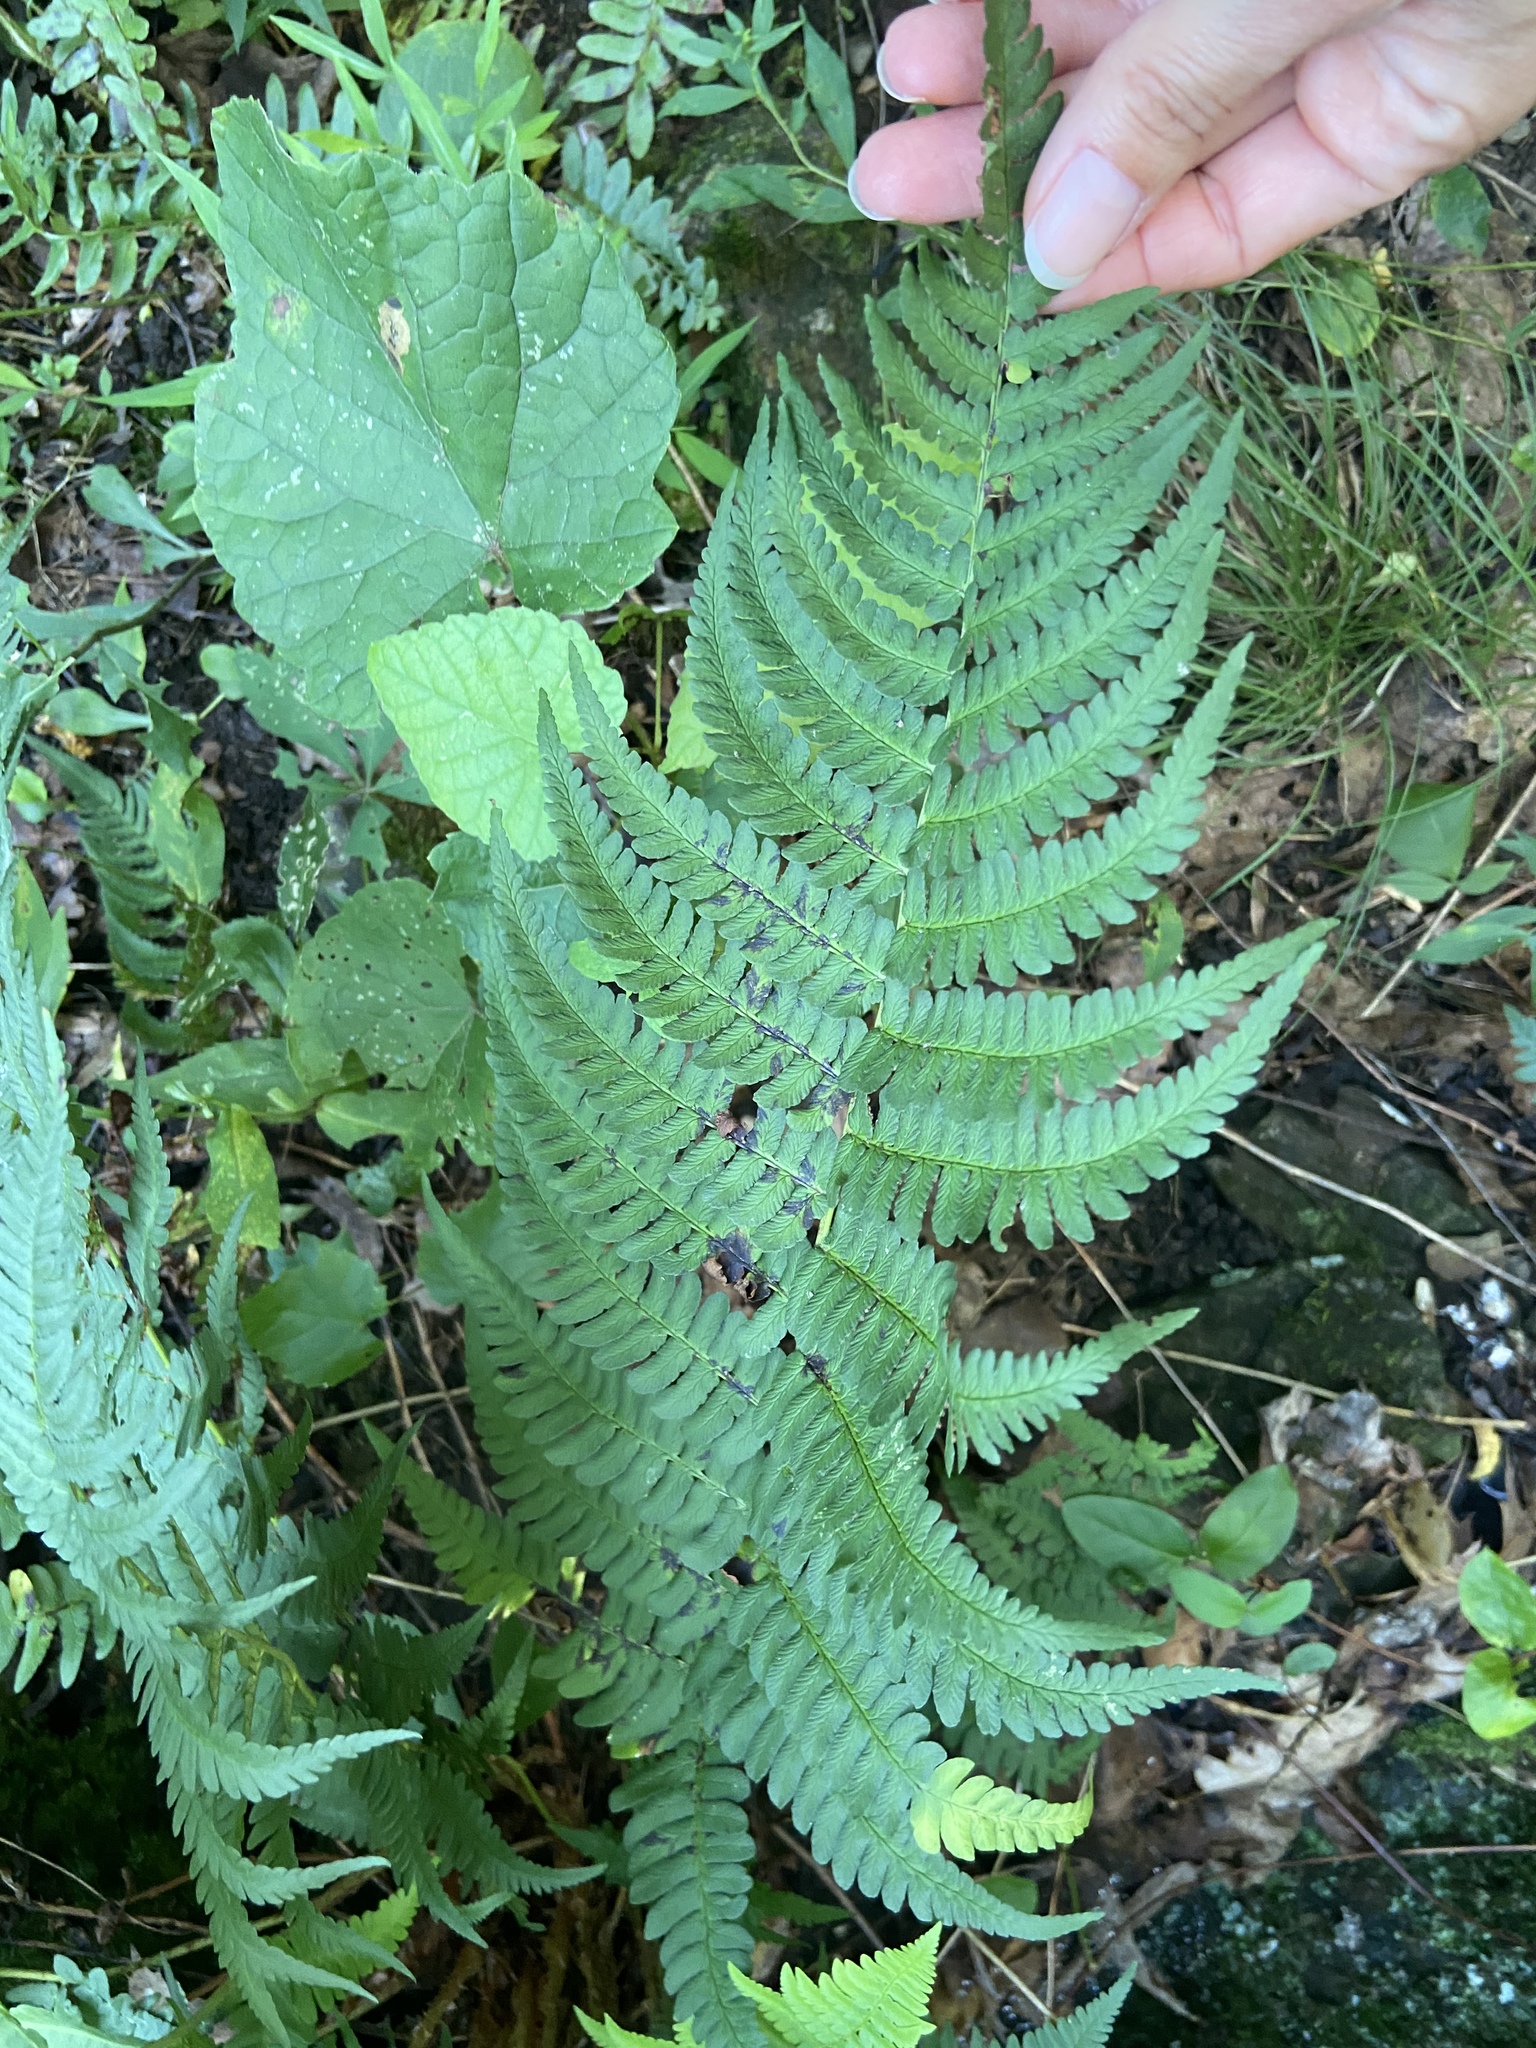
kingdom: Plantae
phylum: Tracheophyta
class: Polypodiopsida
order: Polypodiales
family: Dryopteridaceae
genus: Dryopteris
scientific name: Dryopteris marginalis
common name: Marginal wood fern
